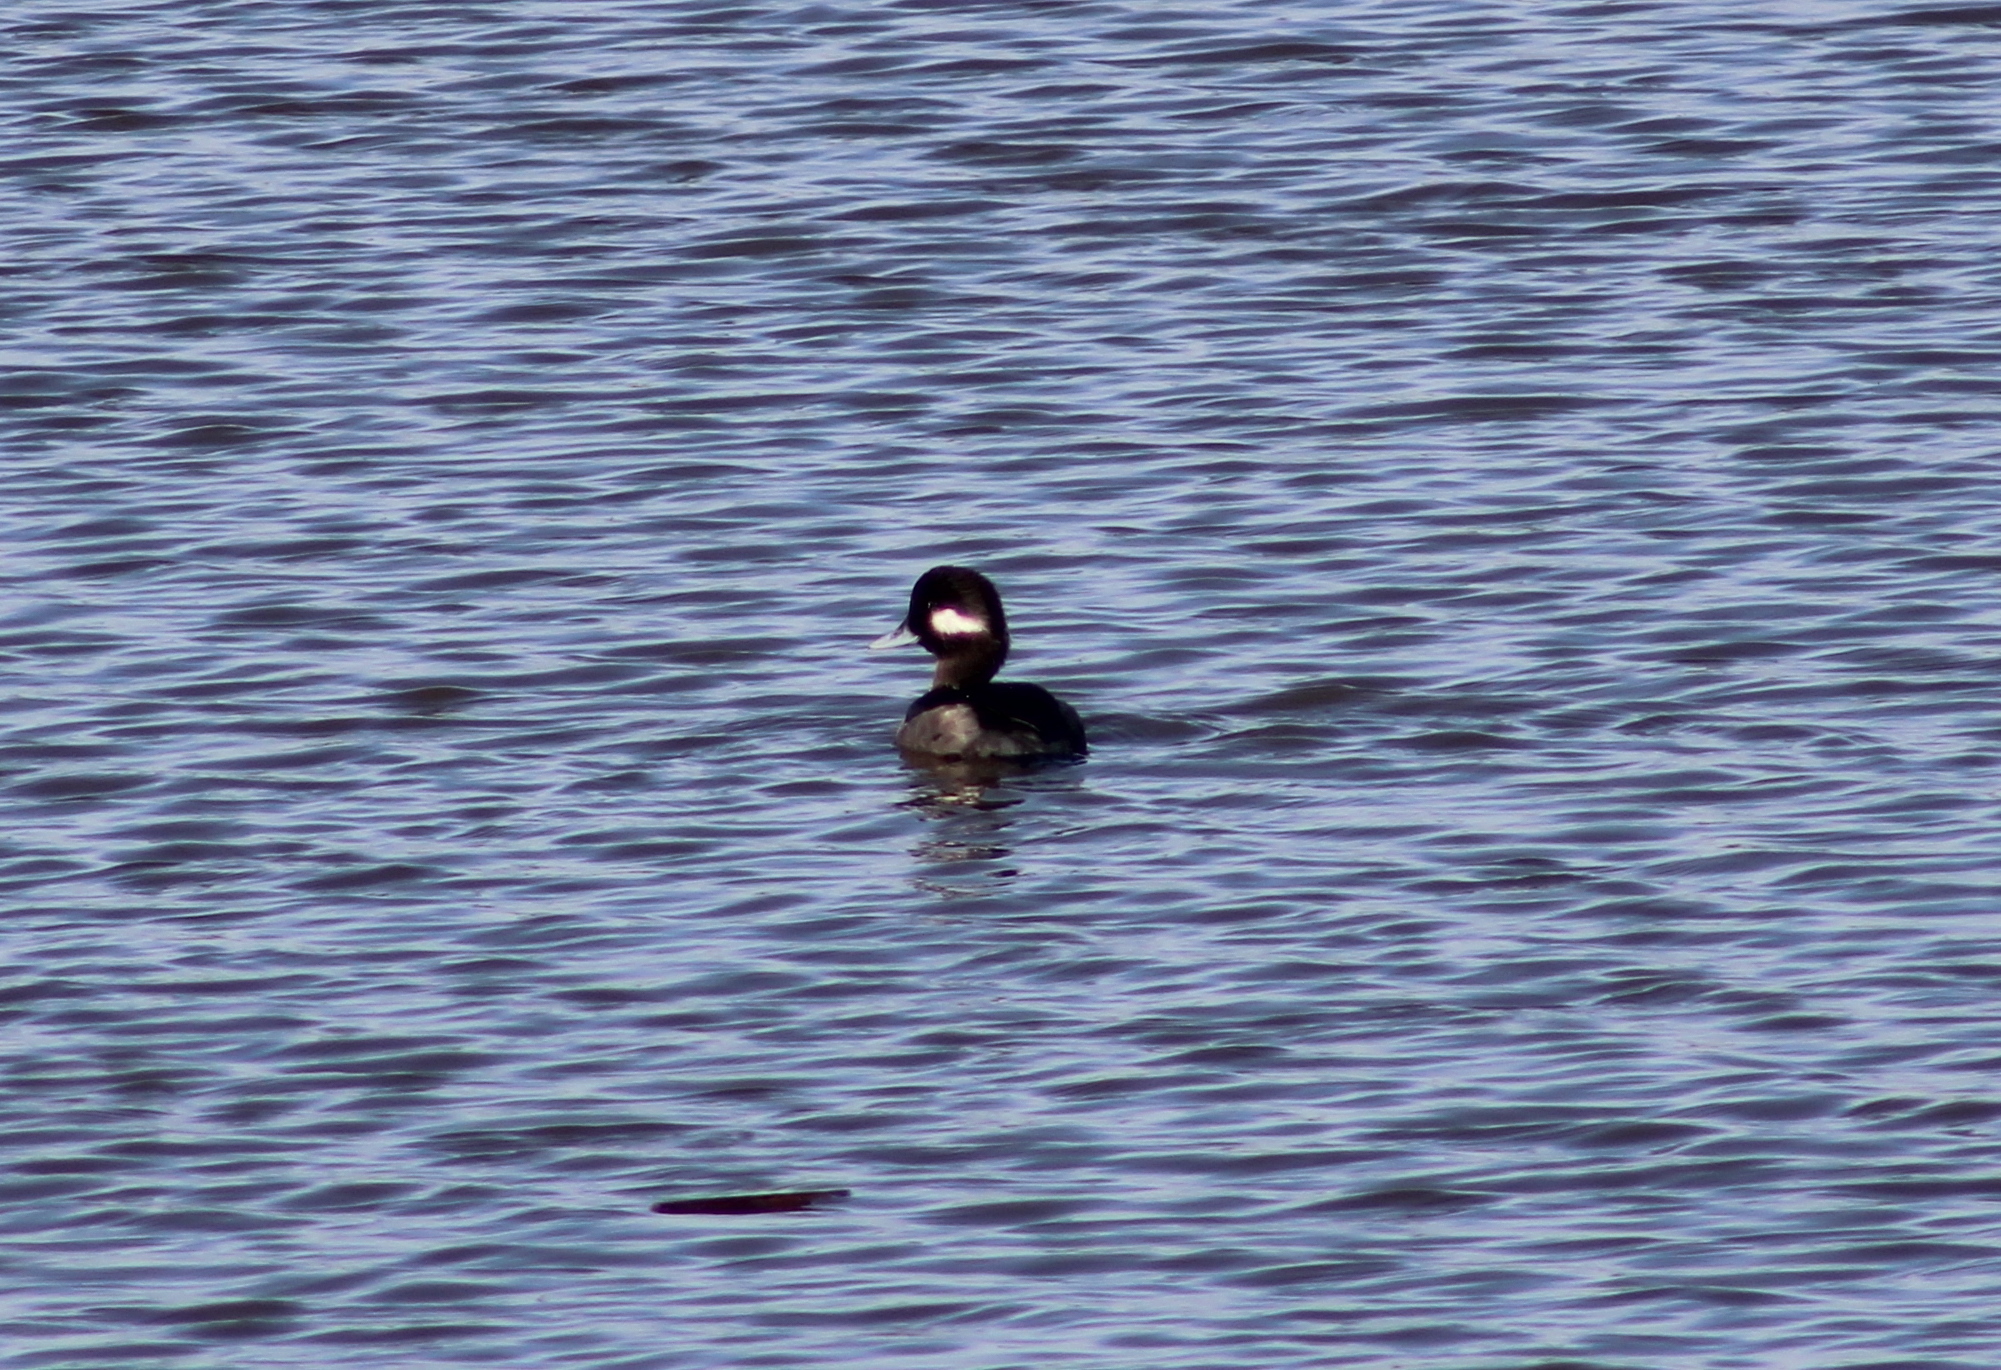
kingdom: Animalia
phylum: Chordata
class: Aves
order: Anseriformes
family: Anatidae
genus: Bucephala
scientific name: Bucephala albeola
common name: Bufflehead
